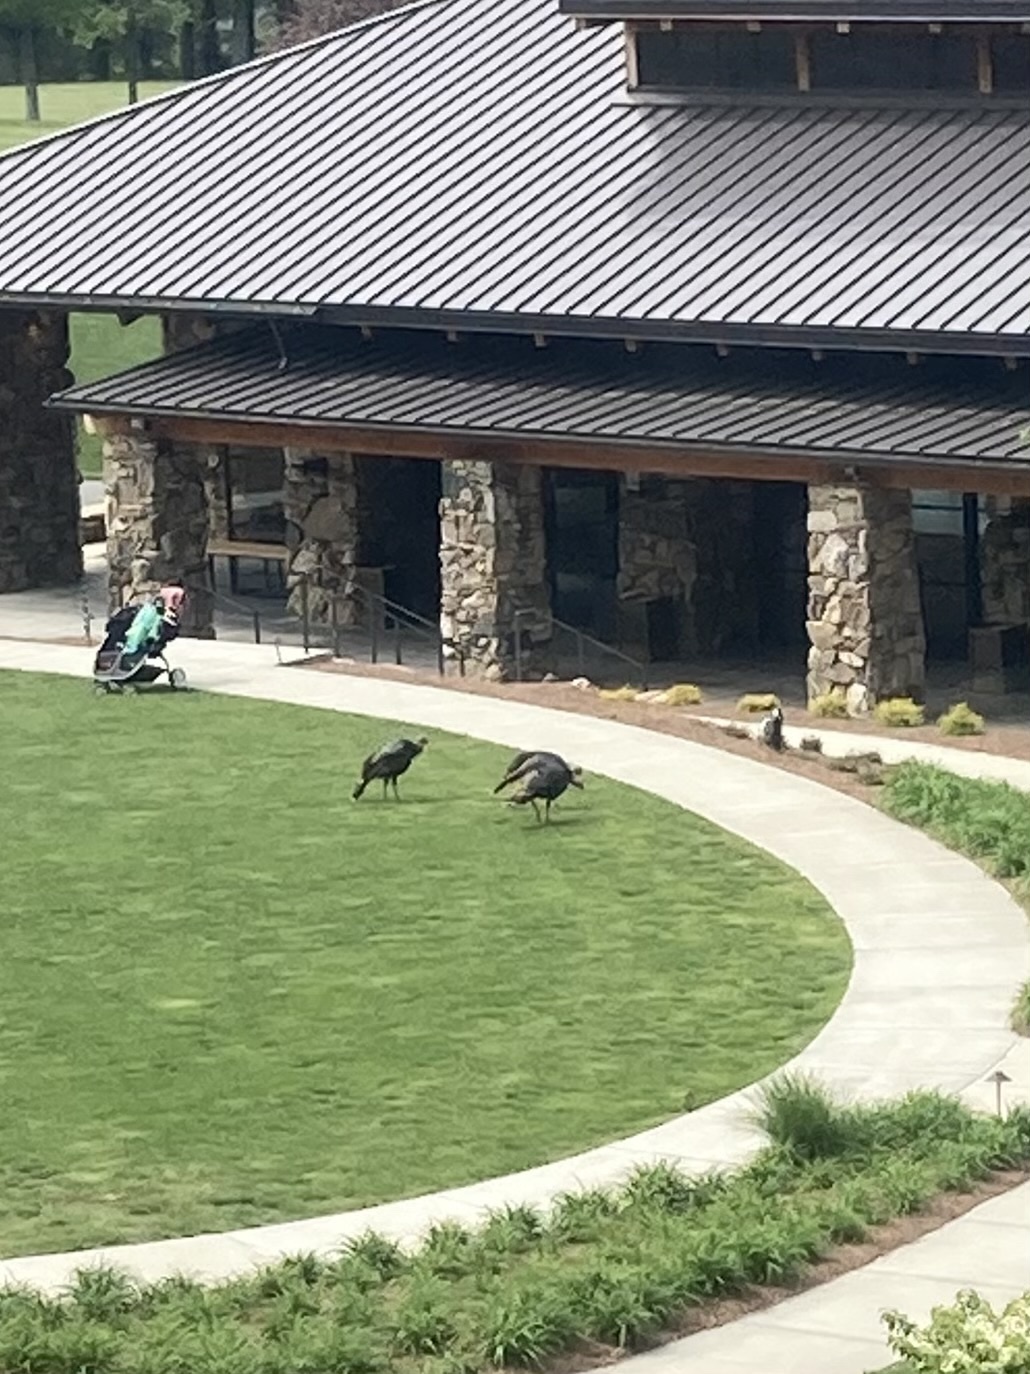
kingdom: Animalia
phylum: Chordata
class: Aves
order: Galliformes
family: Phasianidae
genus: Meleagris
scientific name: Meleagris gallopavo
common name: Wild turkey
